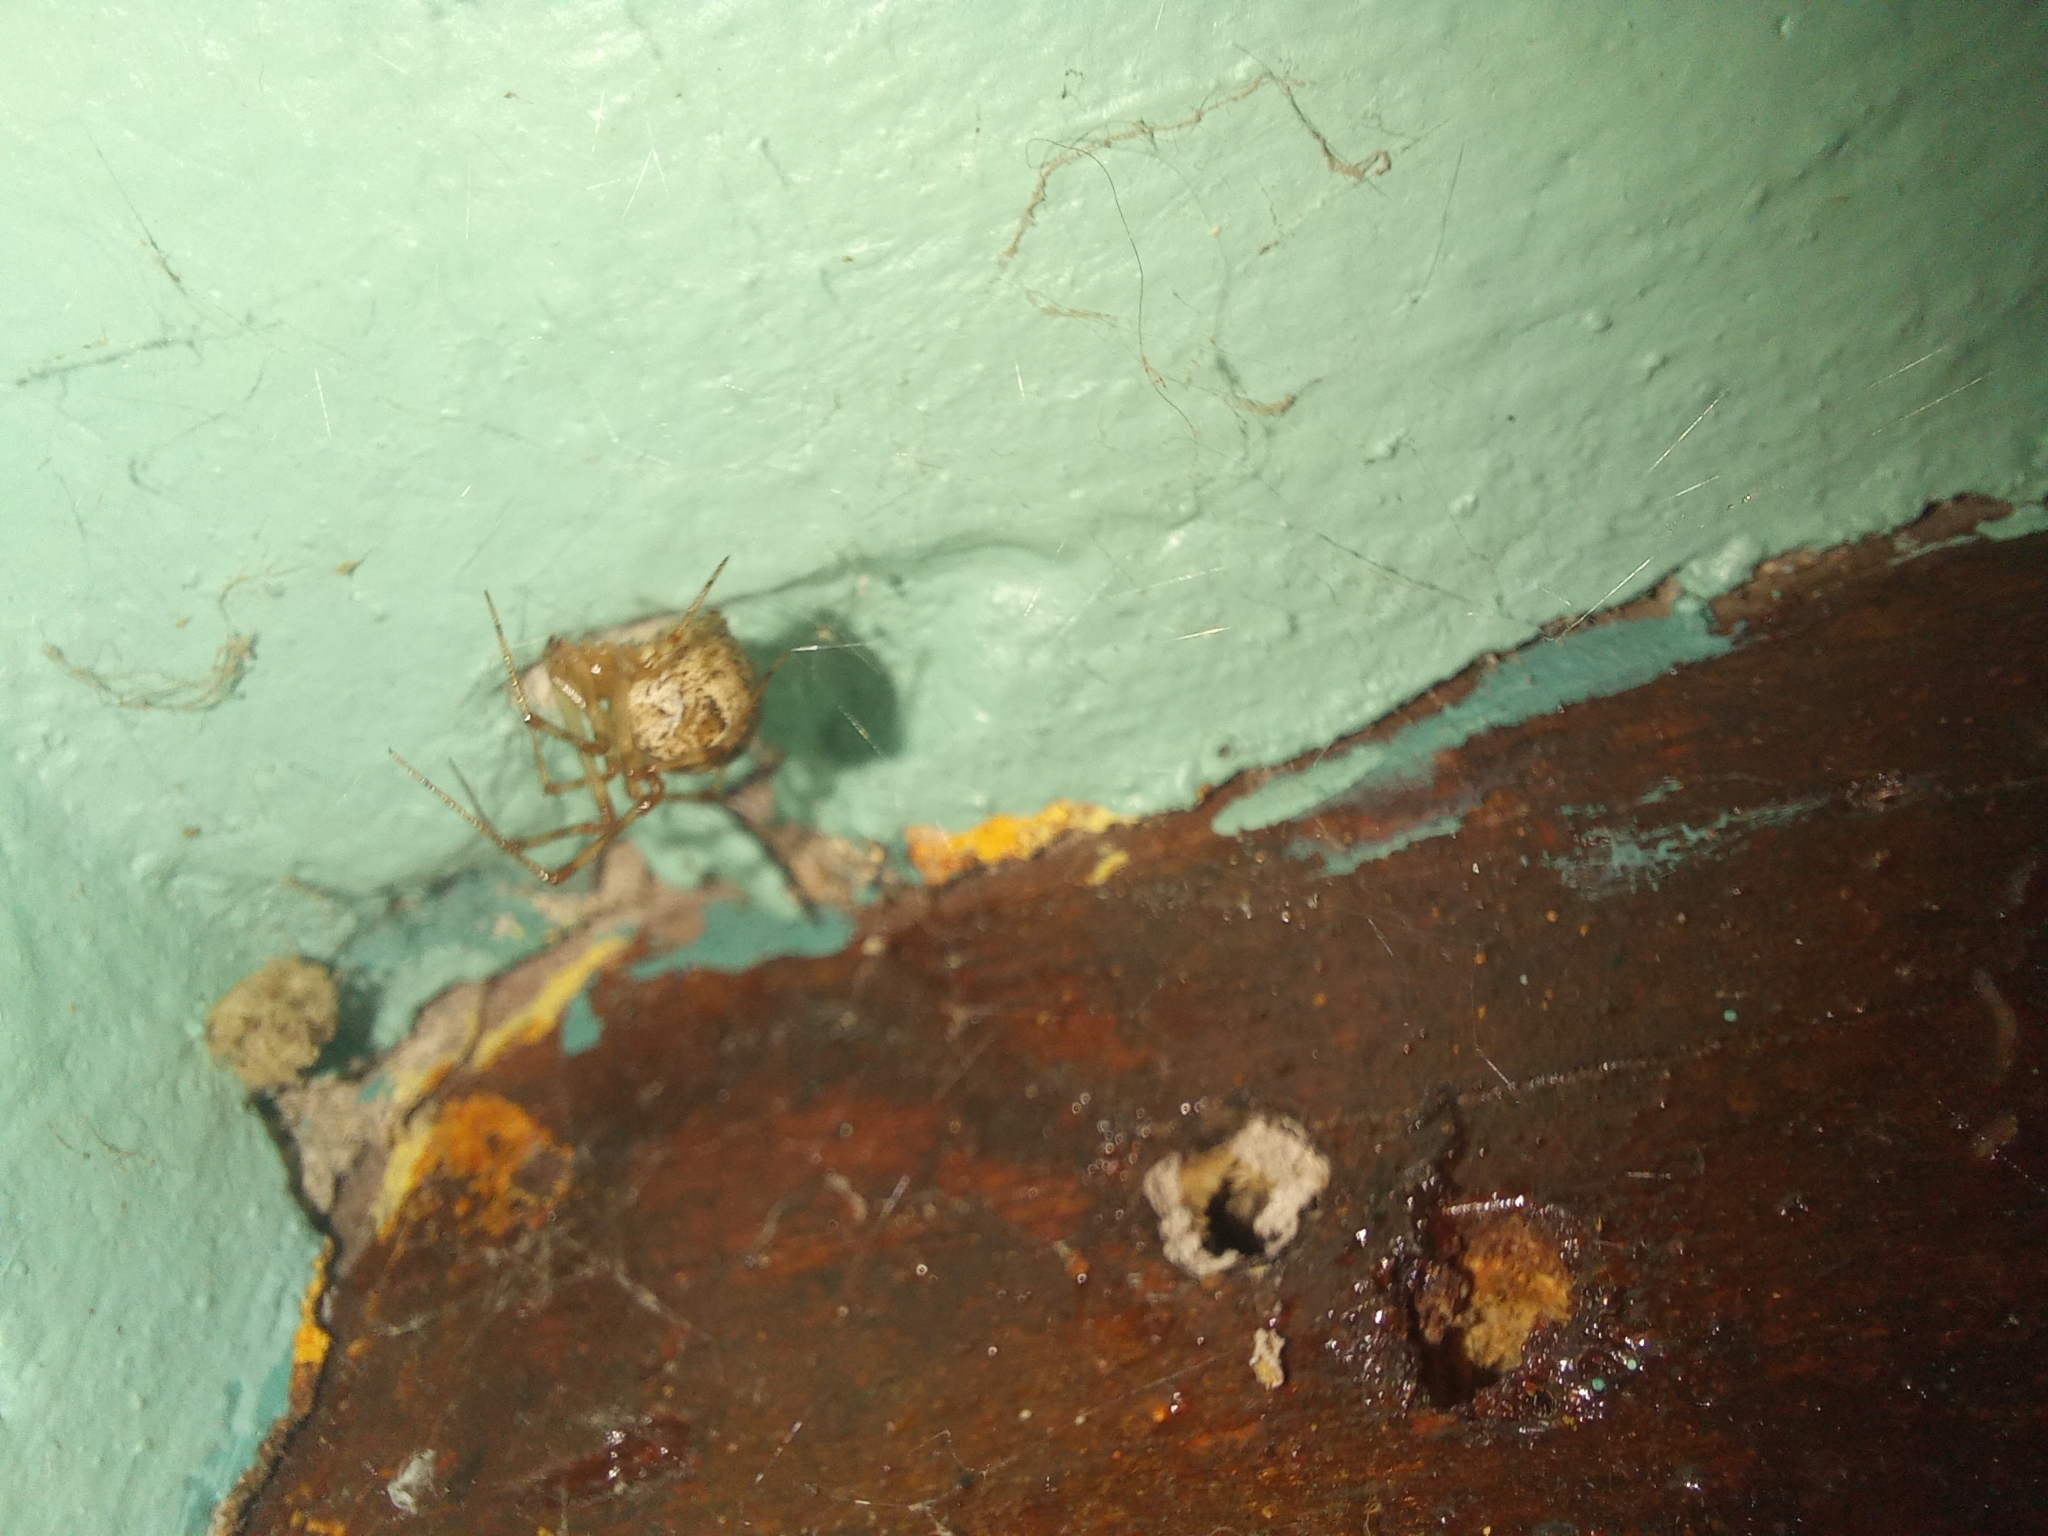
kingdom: Animalia
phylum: Arthropoda
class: Arachnida
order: Araneae
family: Theridiidae
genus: Parasteatoda
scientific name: Parasteatoda tepidariorum
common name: Common house spider
